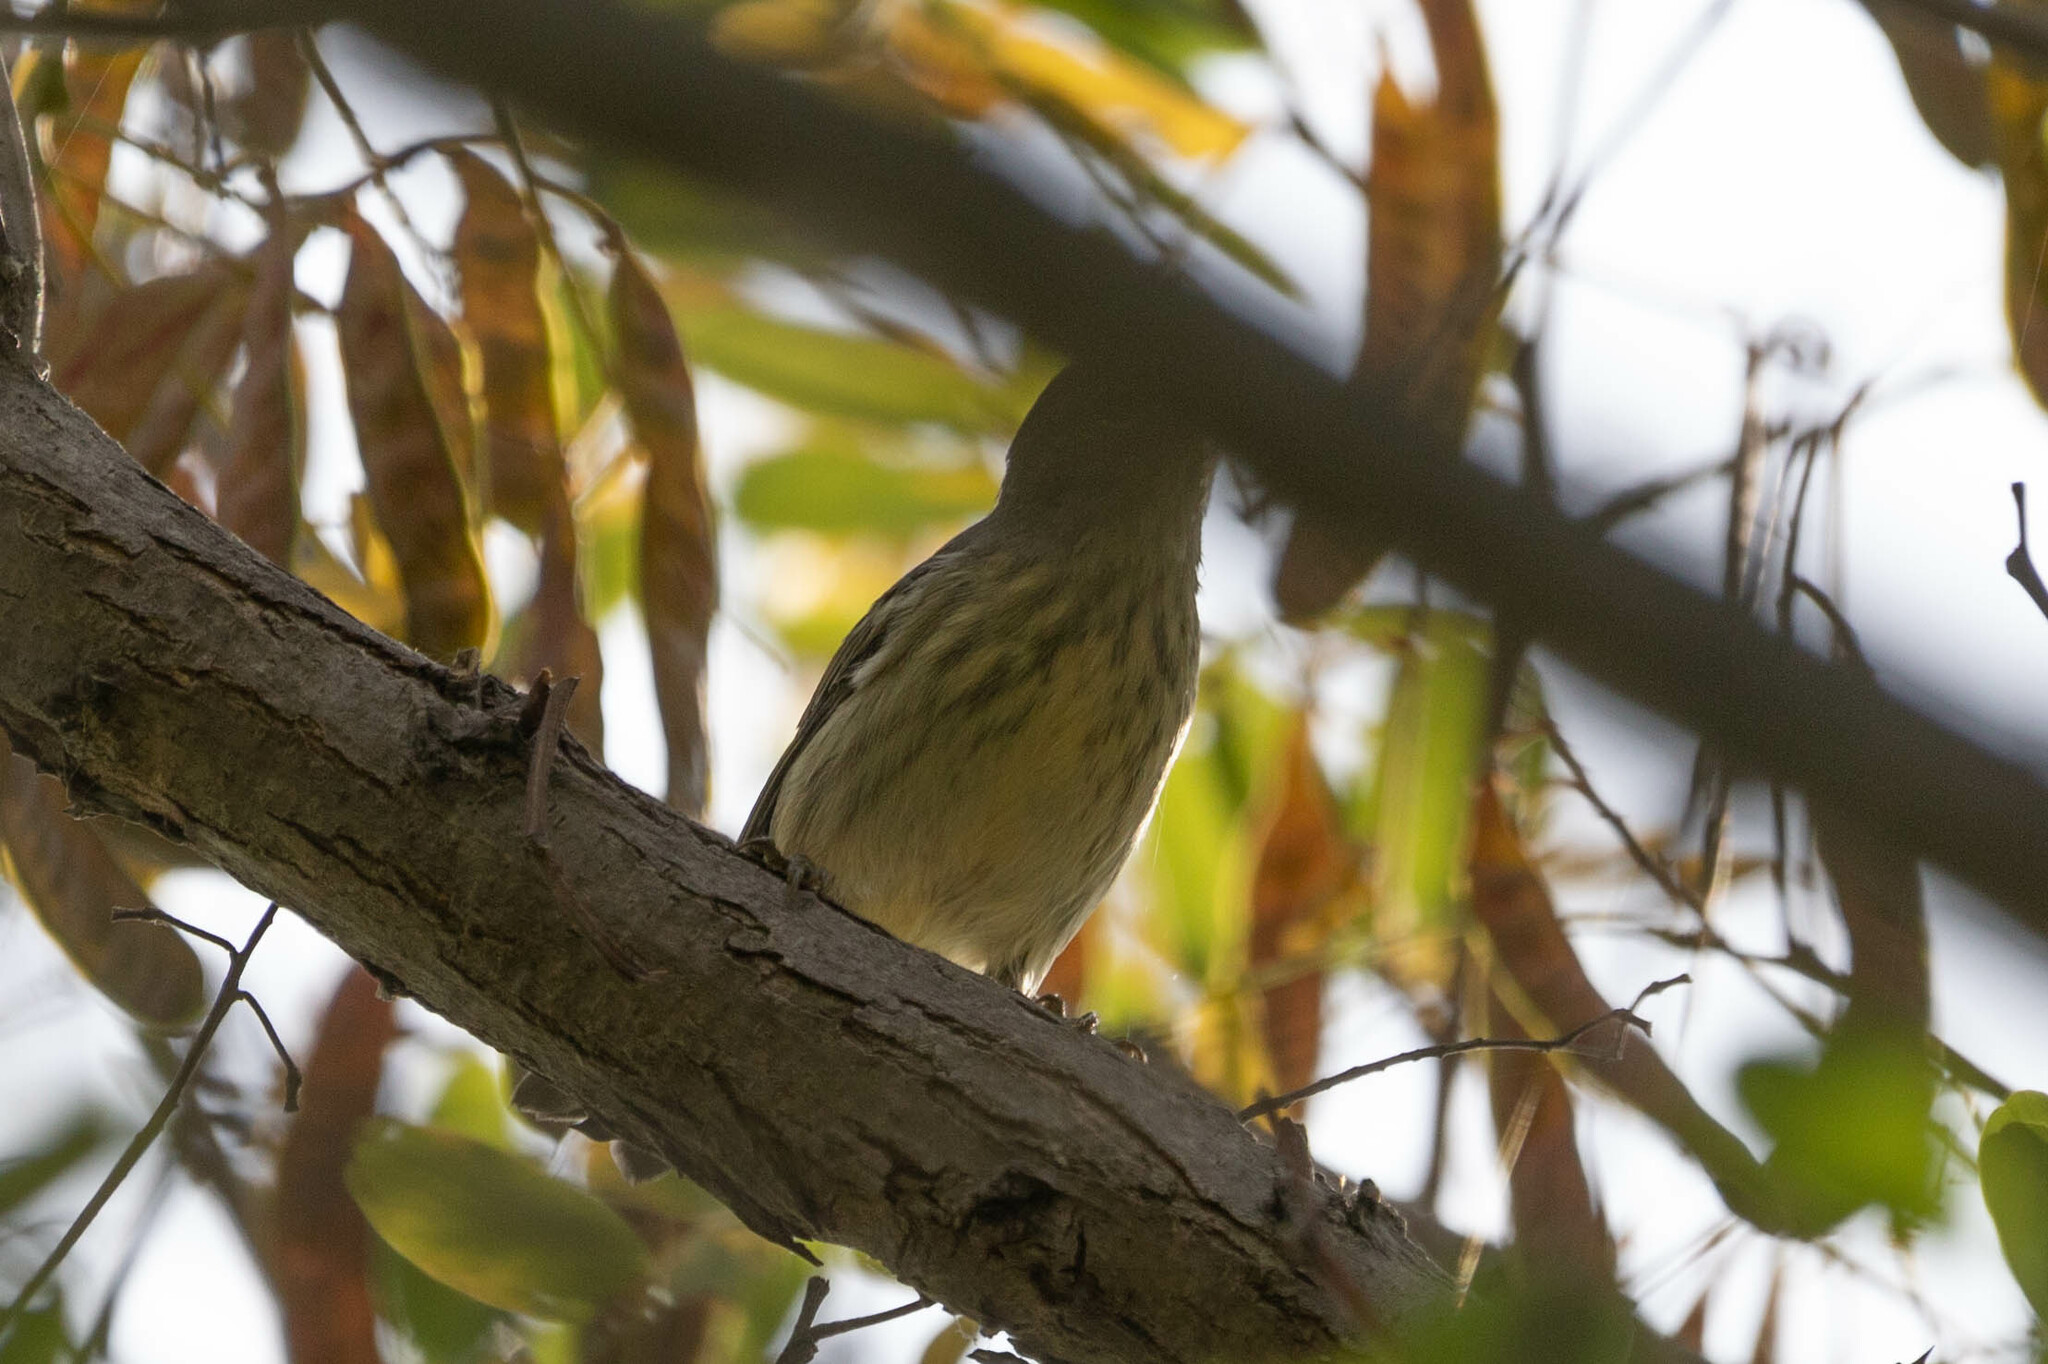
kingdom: Animalia
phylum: Chordata
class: Aves
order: Passeriformes
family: Parulidae
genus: Setophaga
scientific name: Setophaga tigrina
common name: Cape may warbler
